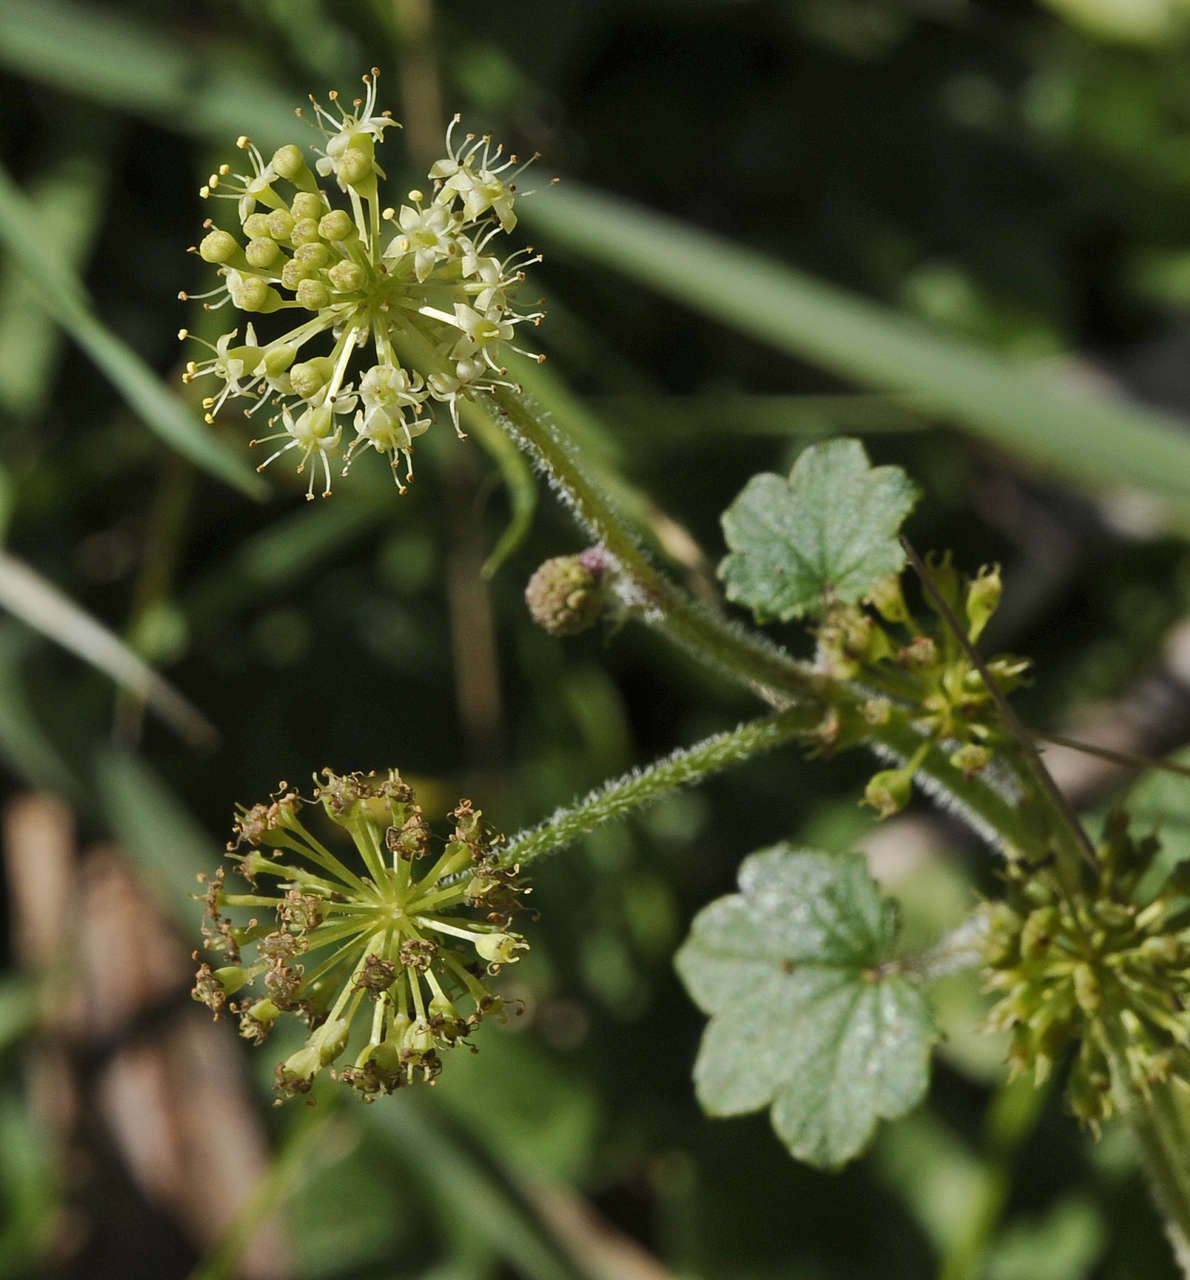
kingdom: Plantae
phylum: Tracheophyta
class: Magnoliopsida
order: Apiales
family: Araliaceae
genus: Hydrocotyle
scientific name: Hydrocotyle laxiflora
